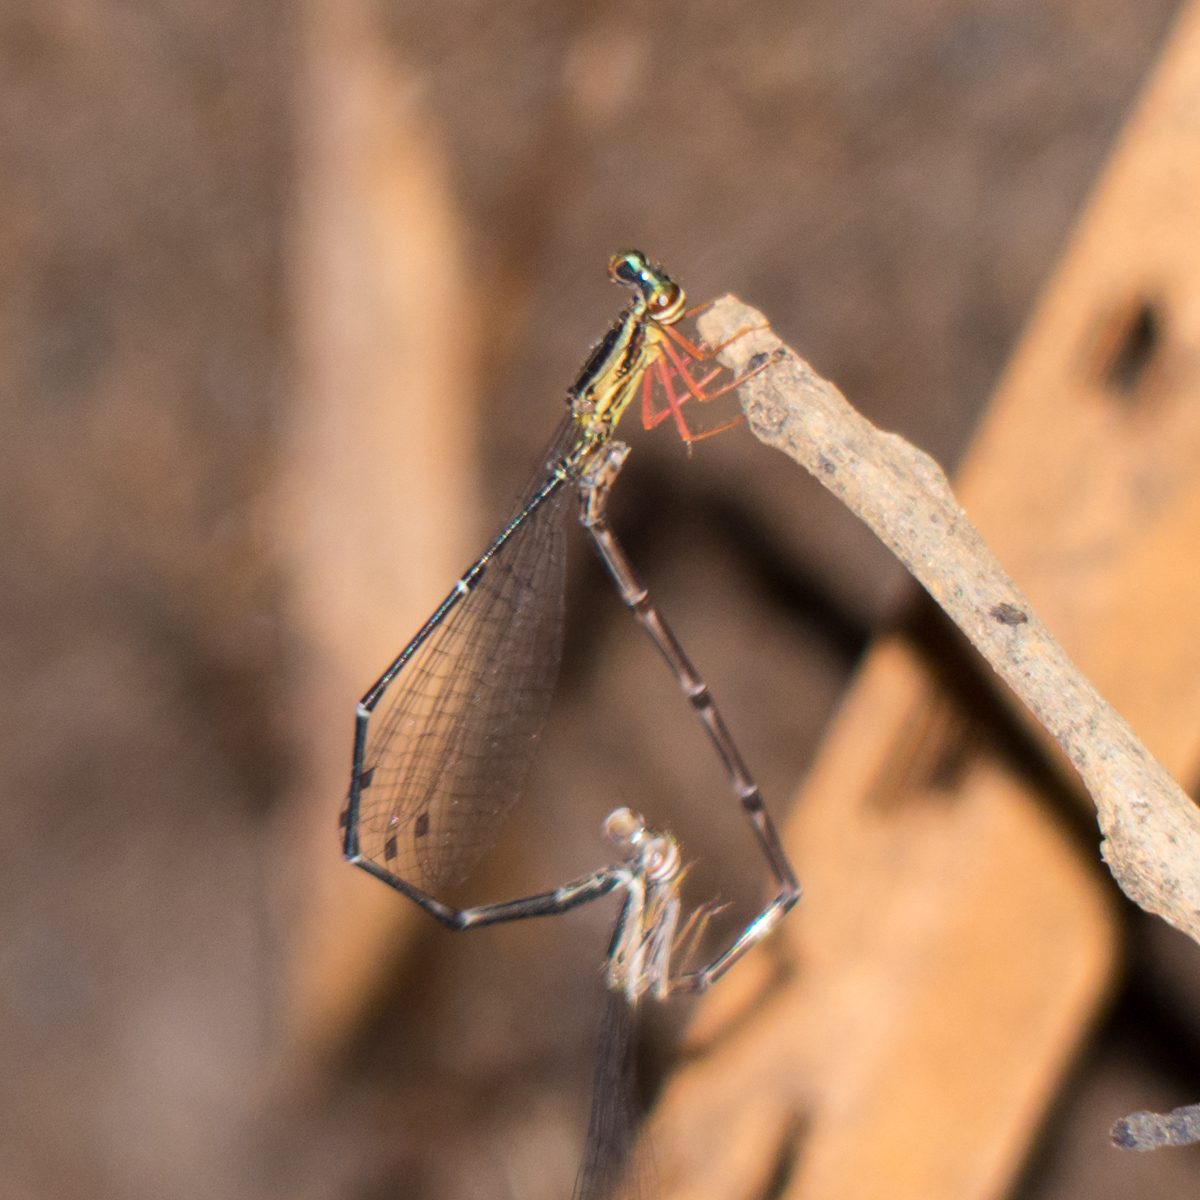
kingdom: Animalia
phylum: Arthropoda
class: Insecta
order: Odonata
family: Platycnemididae
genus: Copera
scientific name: Copera vittata
